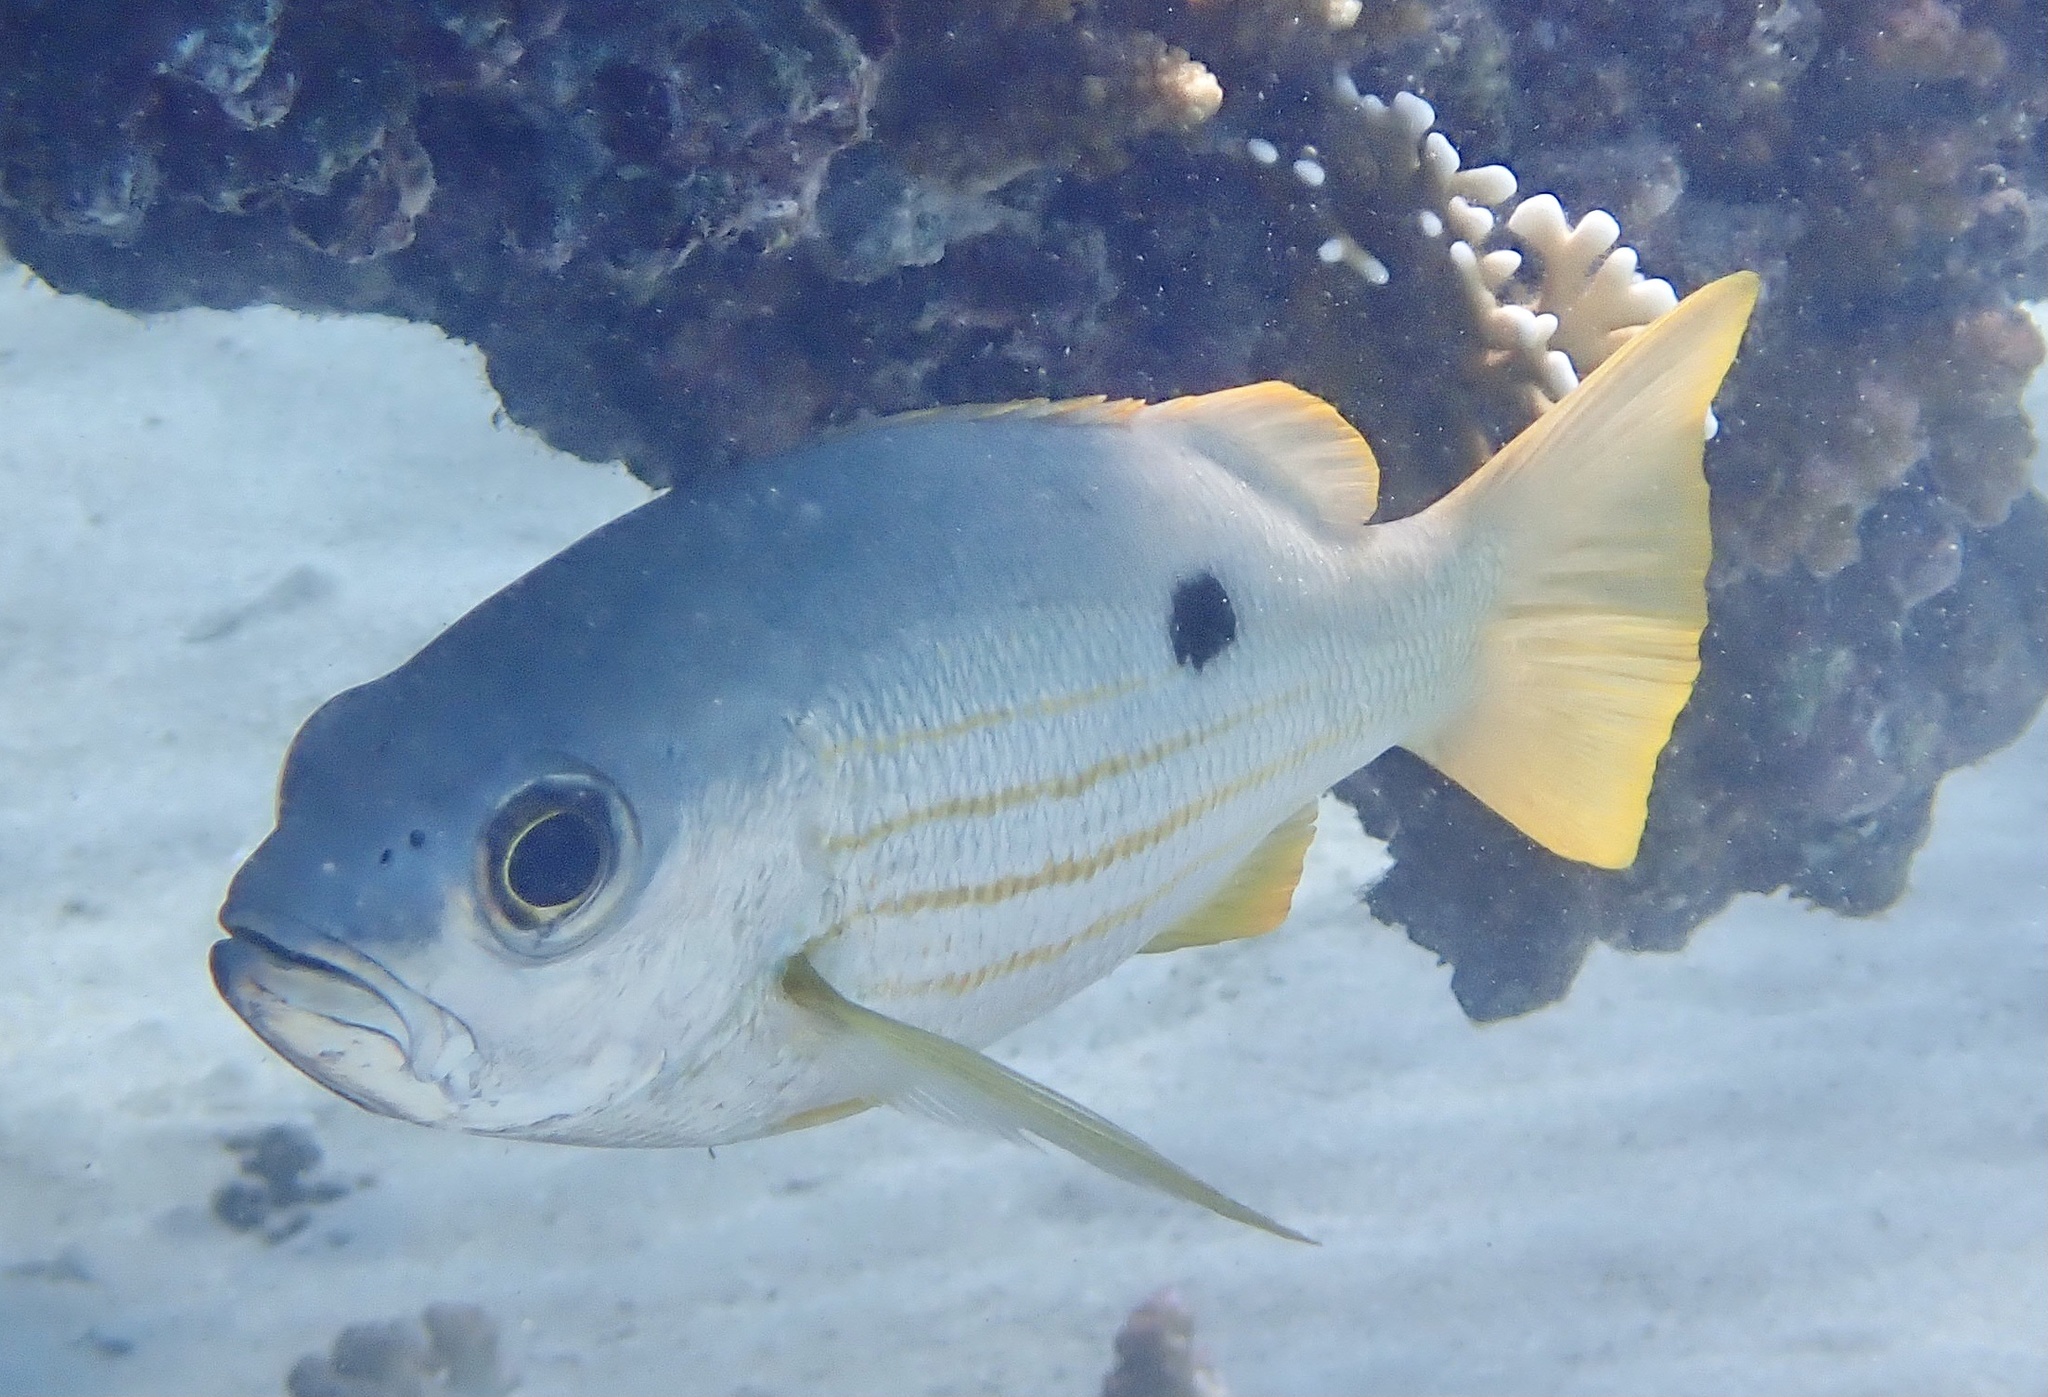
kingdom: Animalia
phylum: Chordata
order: Perciformes
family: Lutjanidae
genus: Lutjanus
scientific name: Lutjanus ehrenbergii
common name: Blackspot snapper
